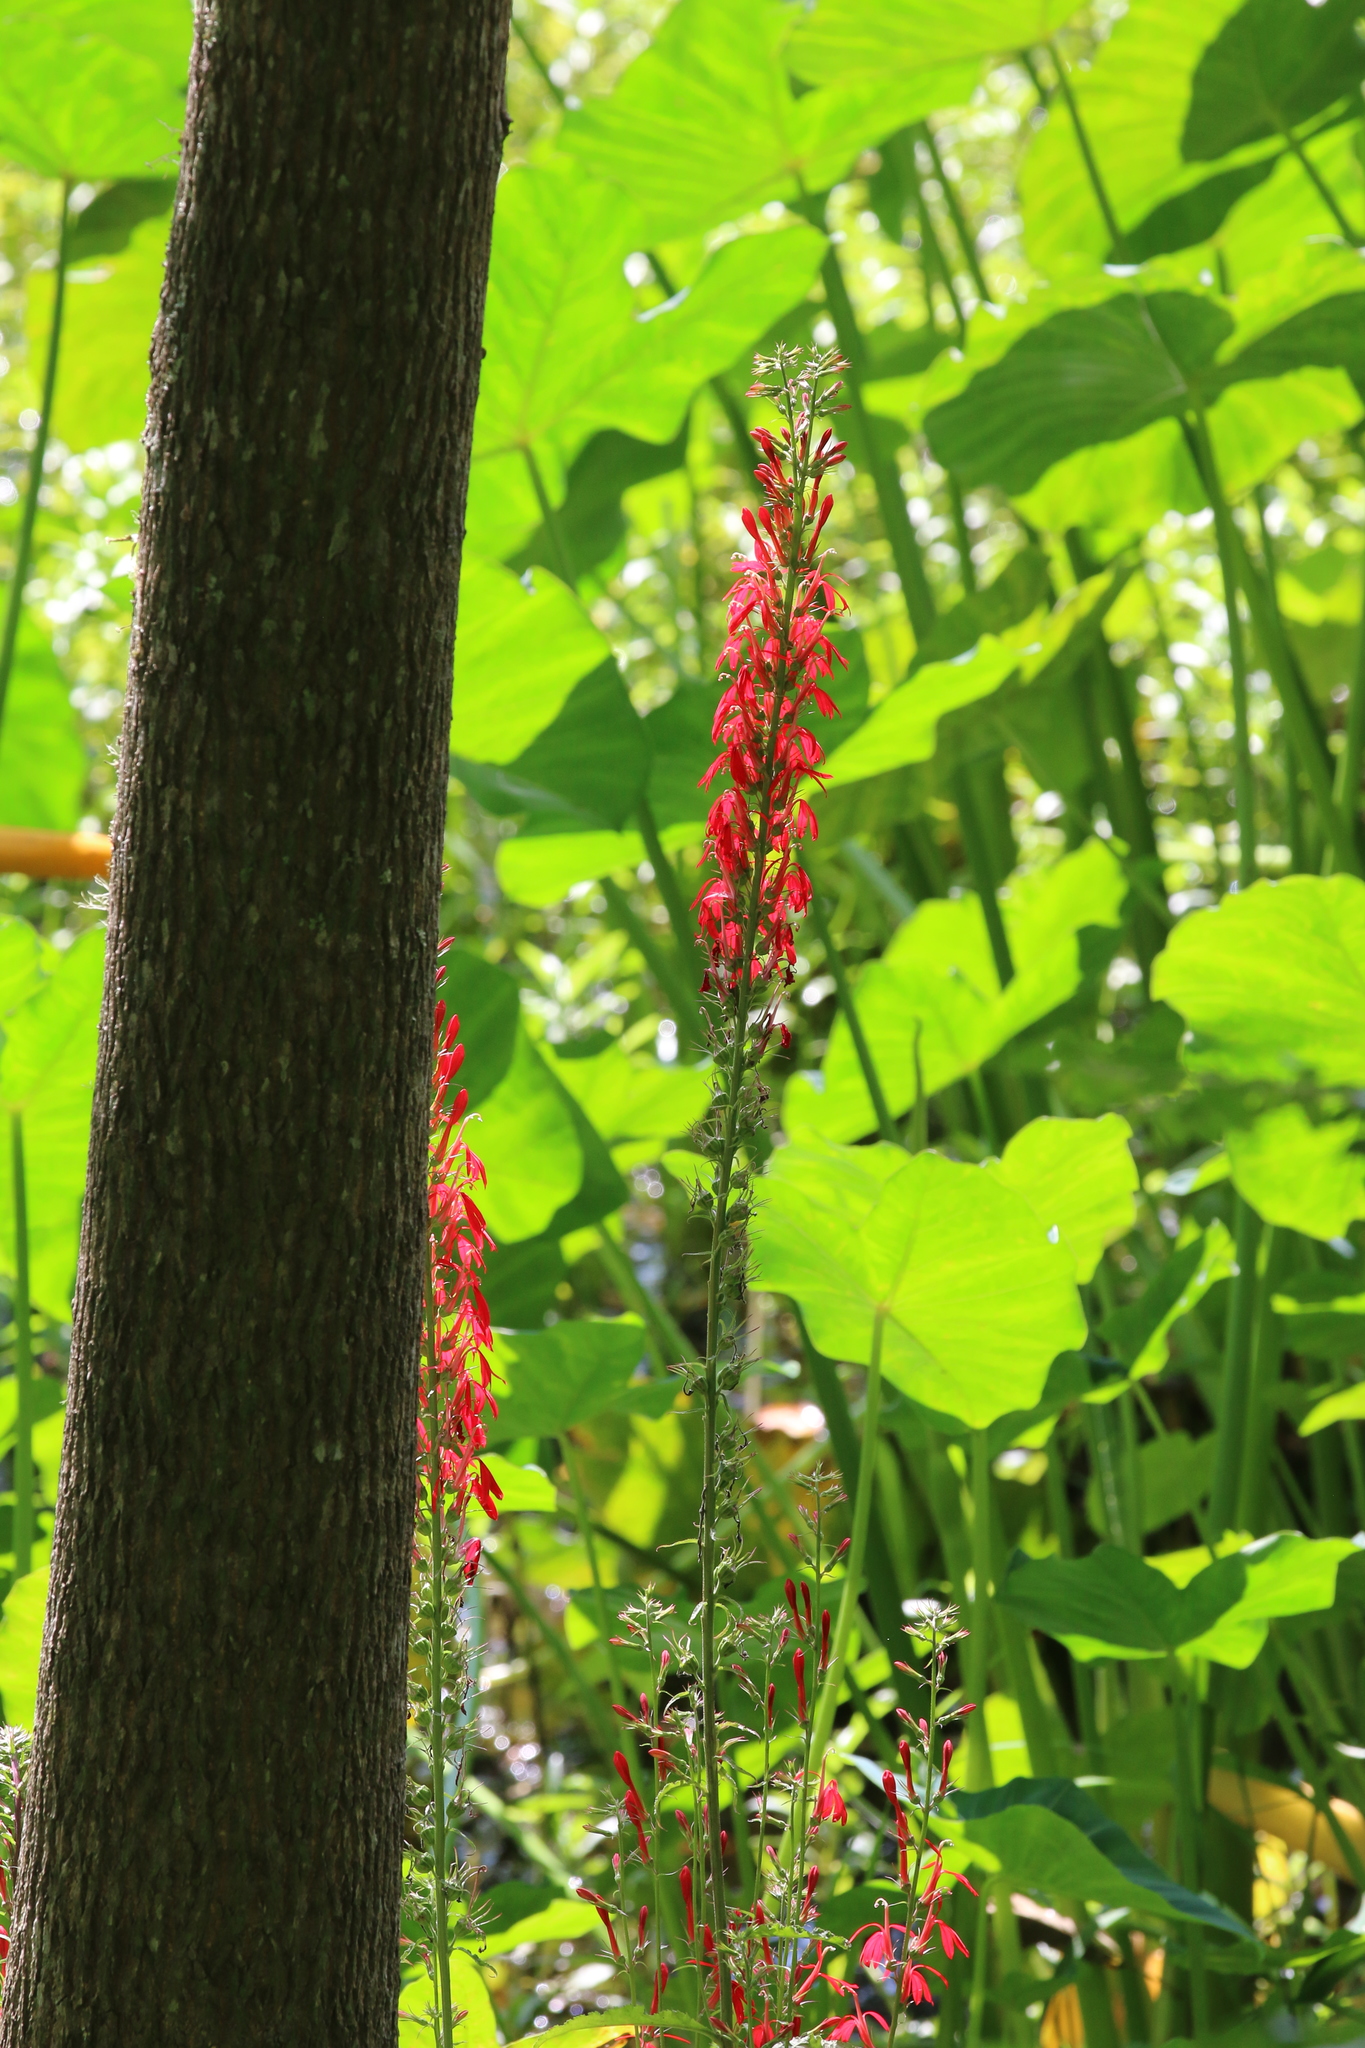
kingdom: Plantae
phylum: Tracheophyta
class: Magnoliopsida
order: Asterales
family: Campanulaceae
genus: Lobelia
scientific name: Lobelia cardinalis
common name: Cardinal flower
